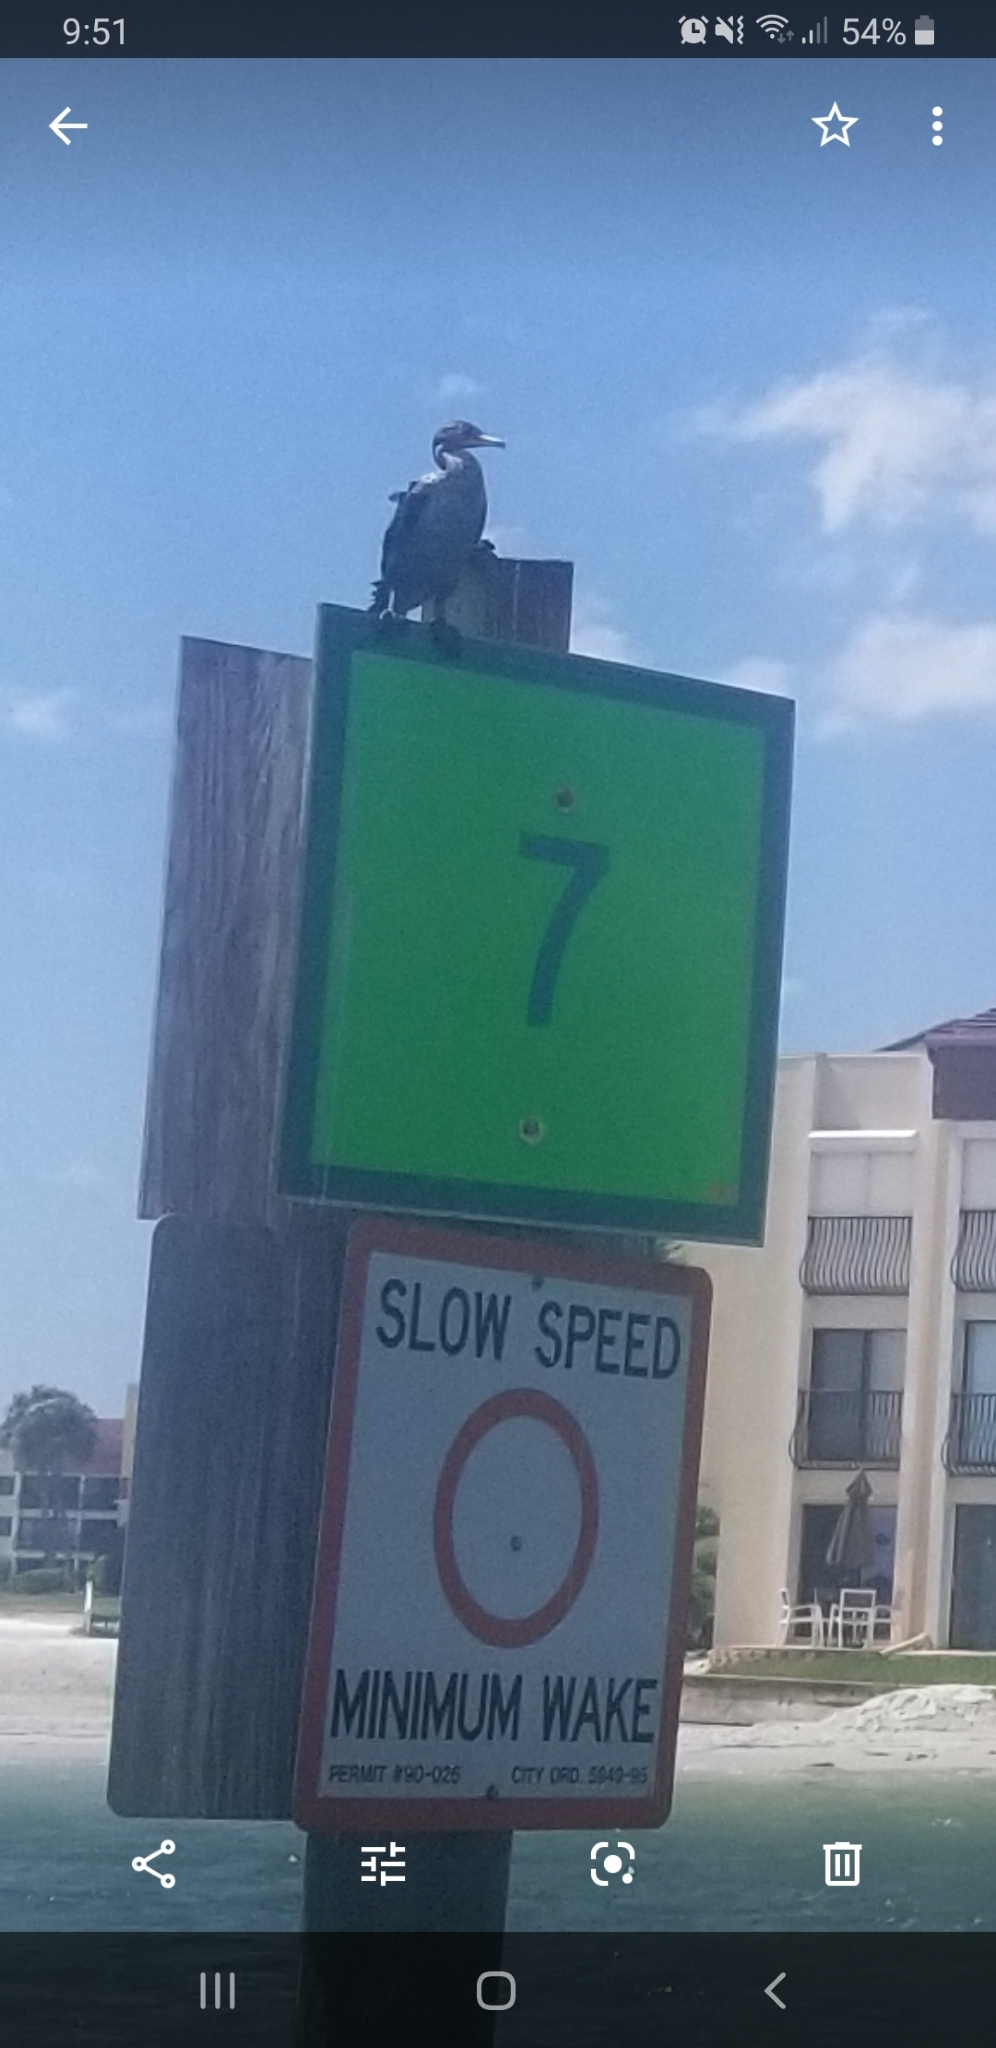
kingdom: Animalia
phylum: Chordata
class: Aves
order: Suliformes
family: Phalacrocoracidae
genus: Phalacrocorax
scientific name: Phalacrocorax auritus
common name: Double-crested cormorant
